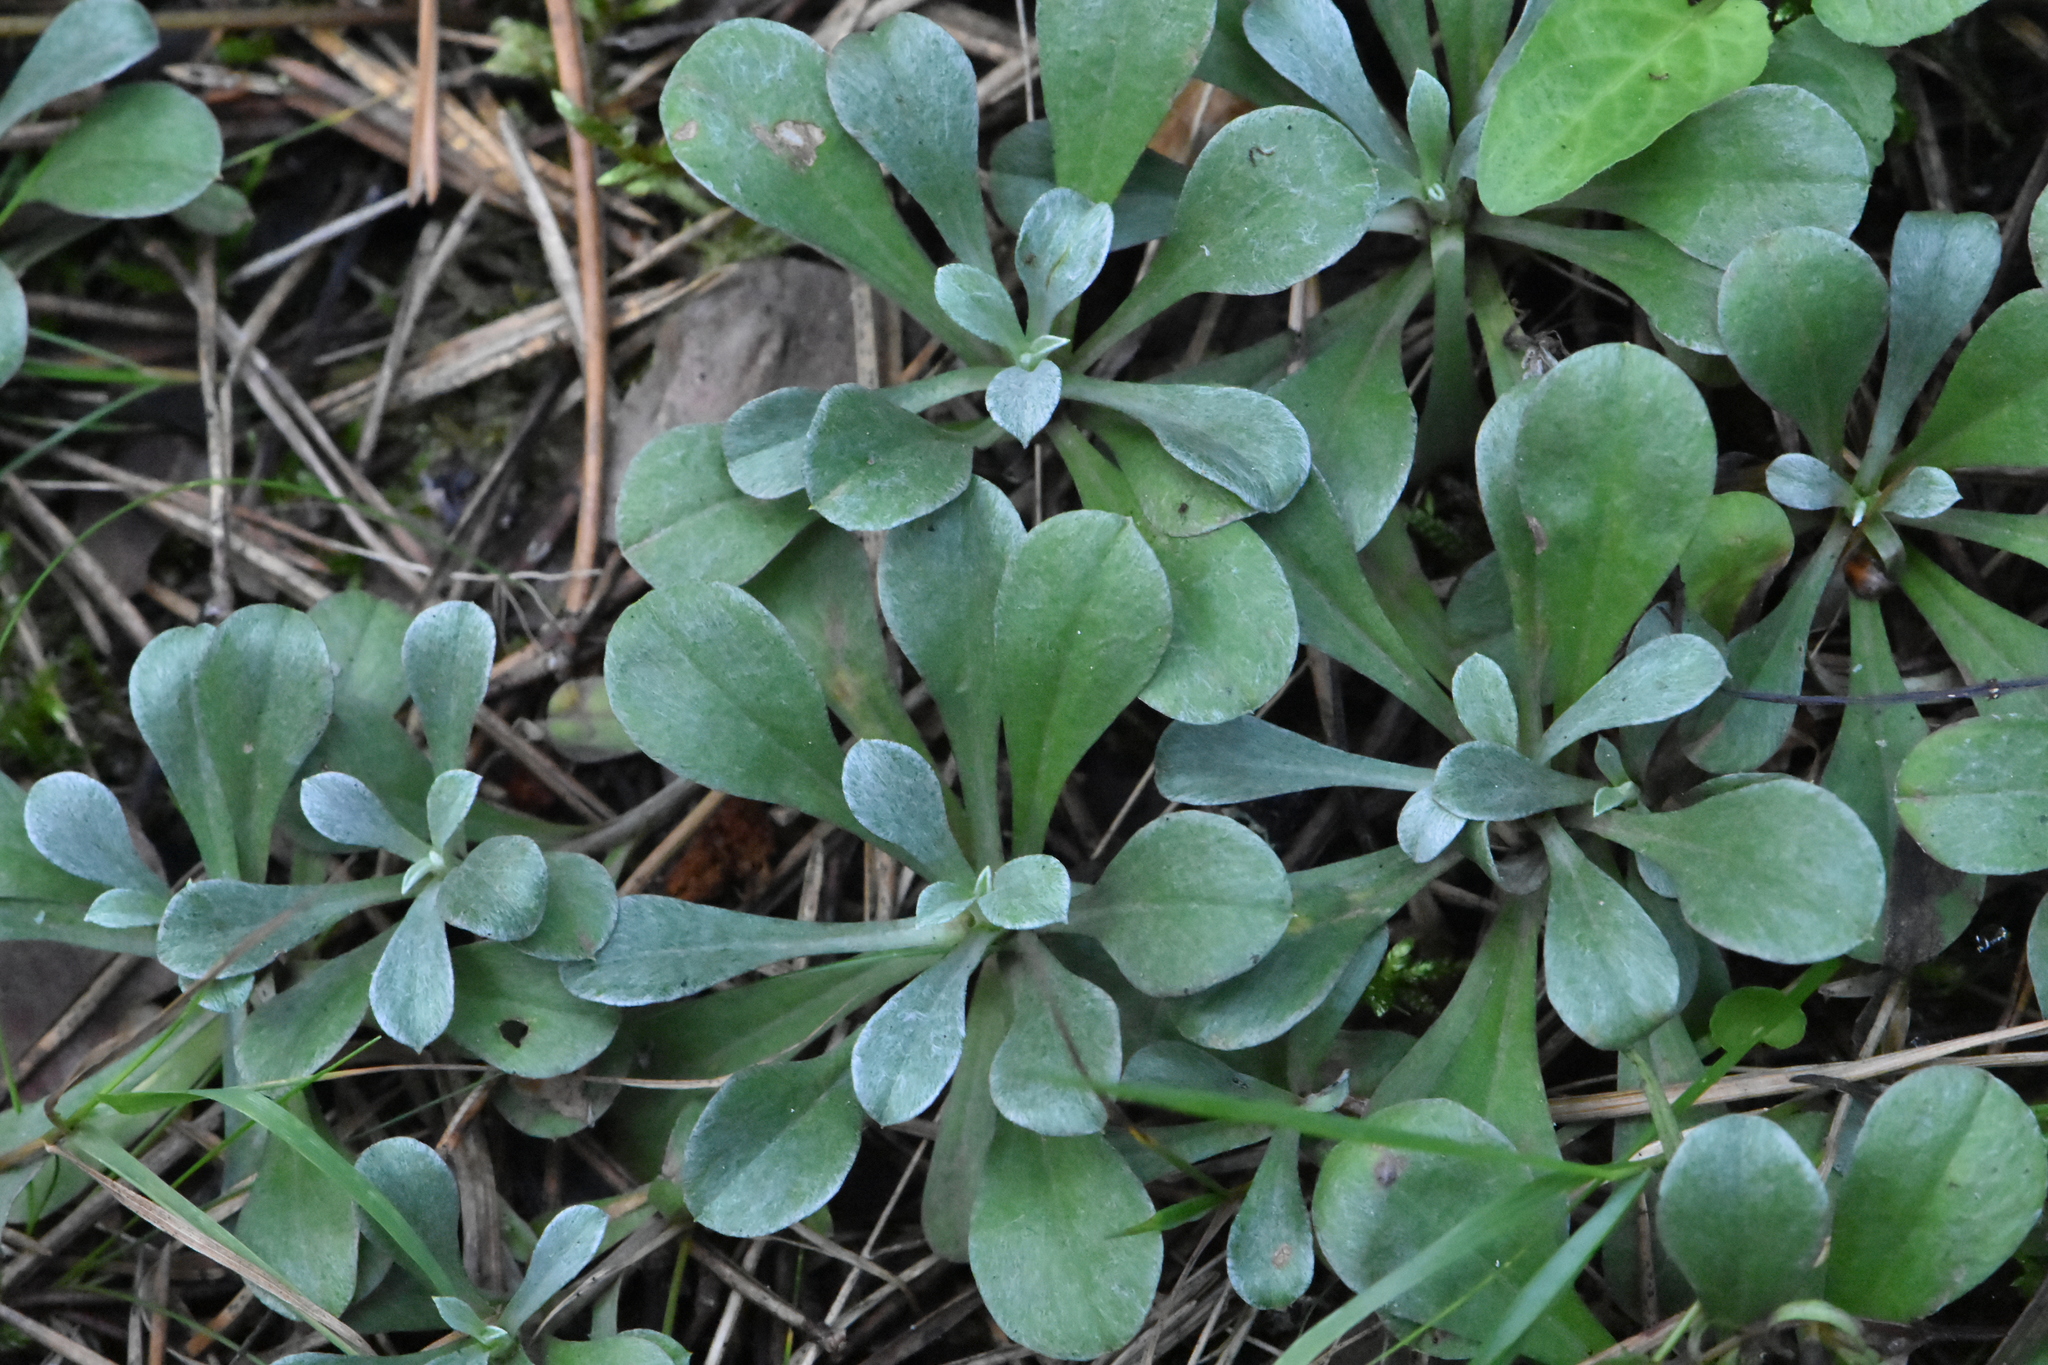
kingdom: Plantae
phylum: Tracheophyta
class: Magnoliopsida
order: Asterales
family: Asteraceae
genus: Antennaria
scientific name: Antennaria dioica
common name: Mountain everlasting
